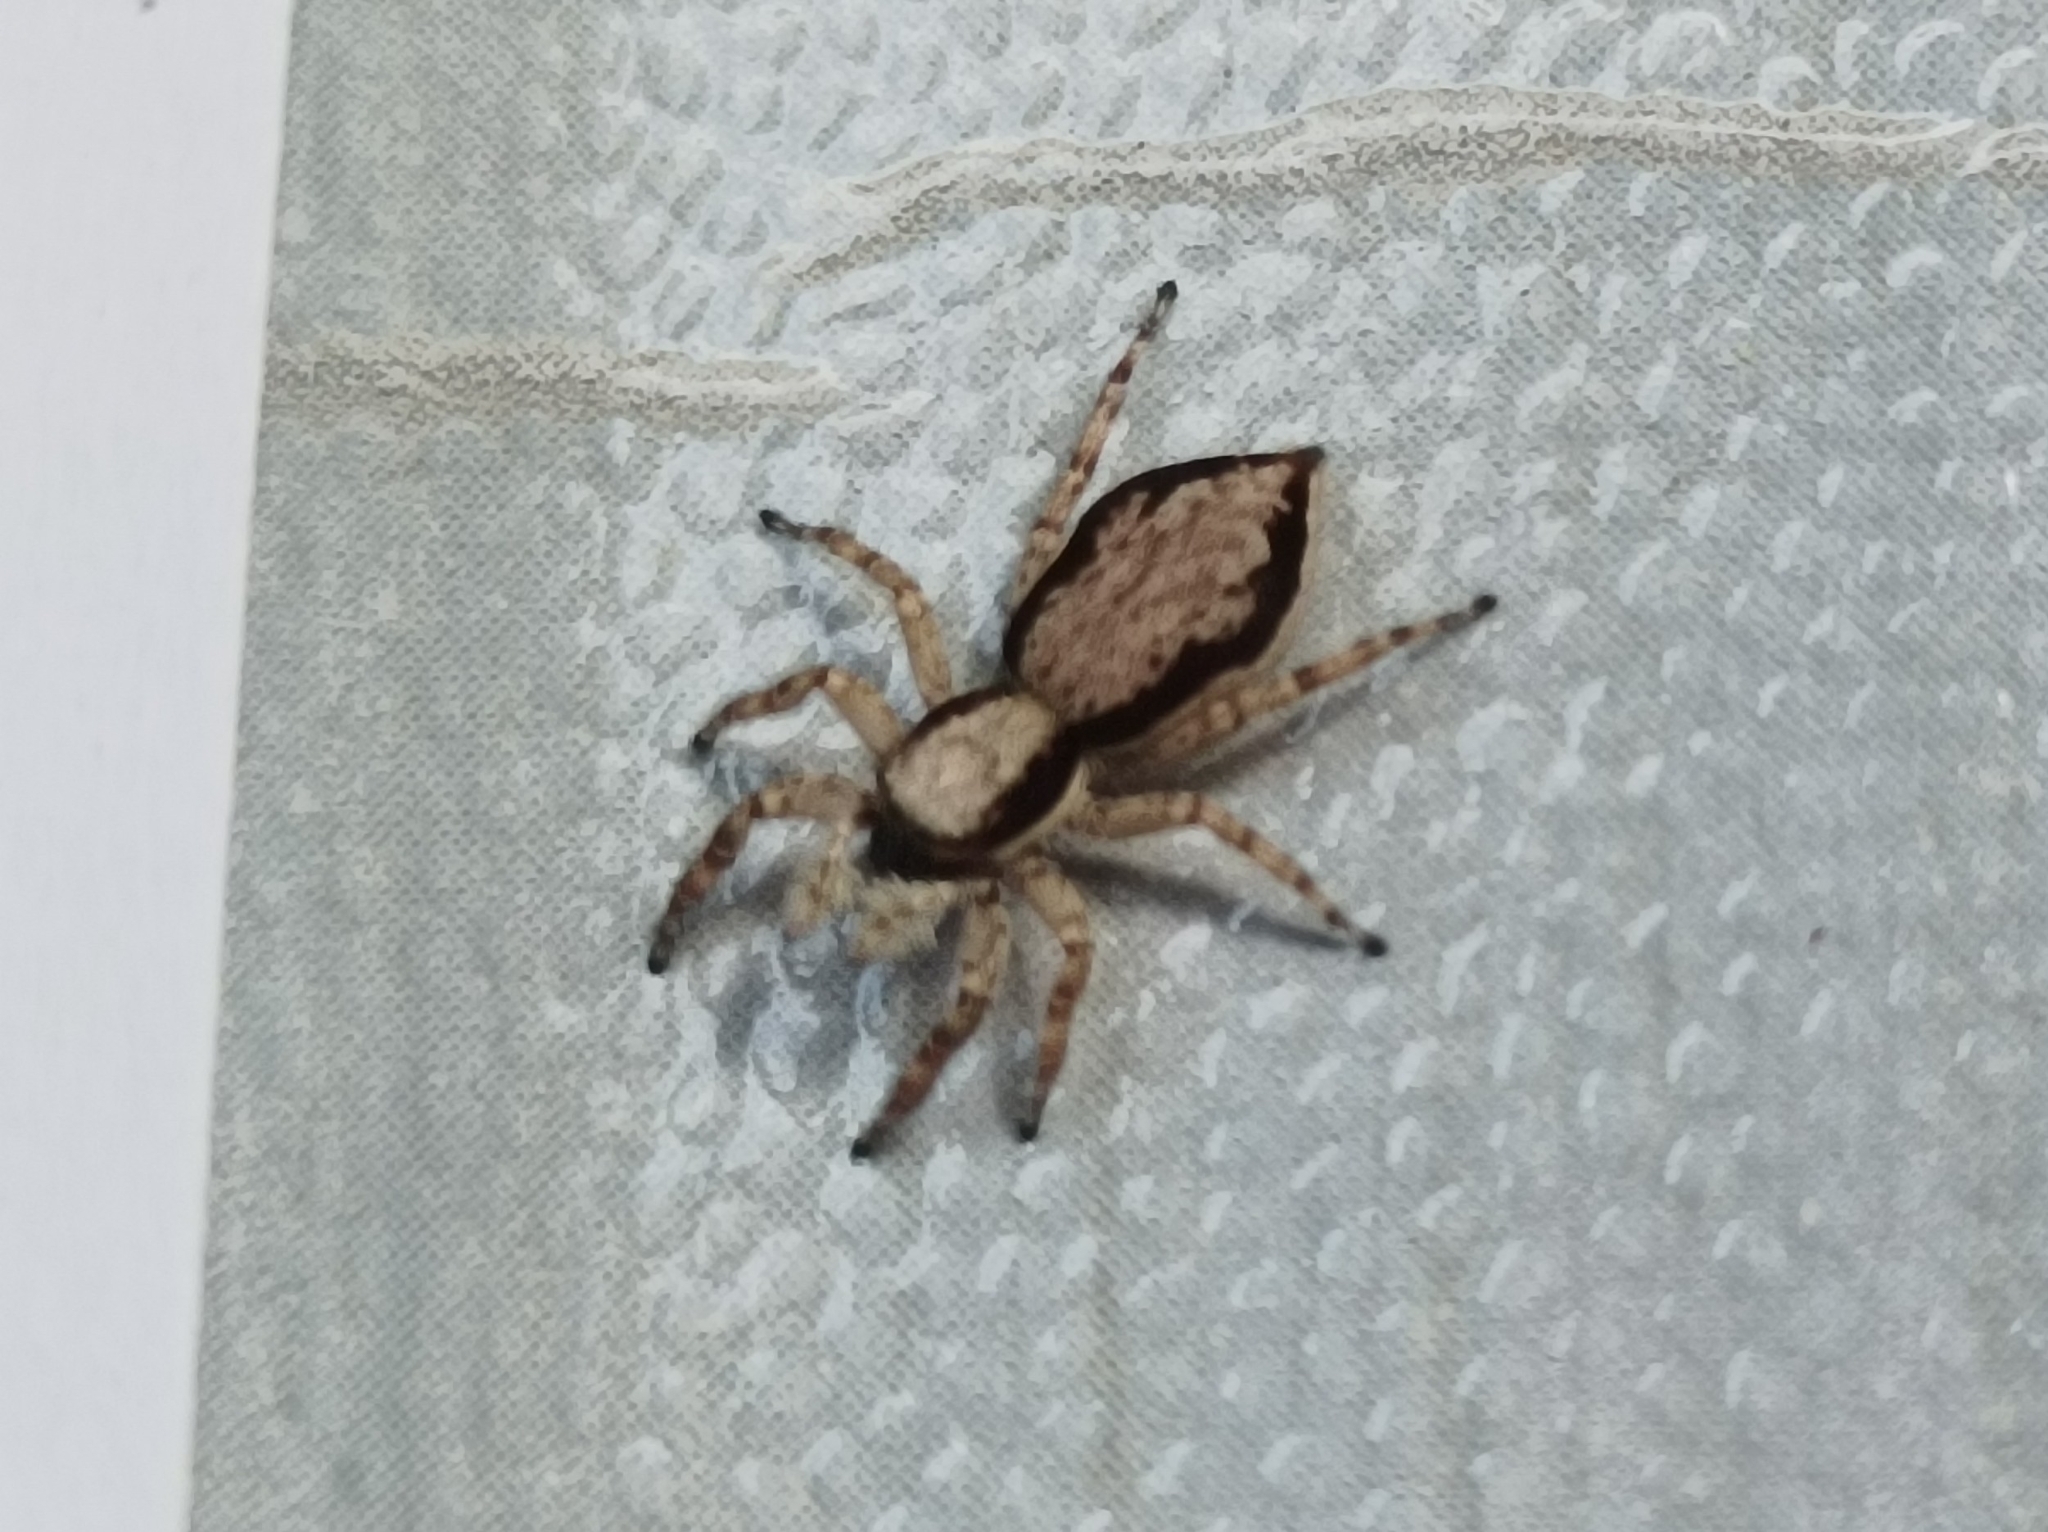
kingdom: Animalia
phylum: Arthropoda
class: Arachnida
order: Araneae
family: Salticidae
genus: Menemerus
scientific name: Menemerus bivittatus
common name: Gray wall jumper
